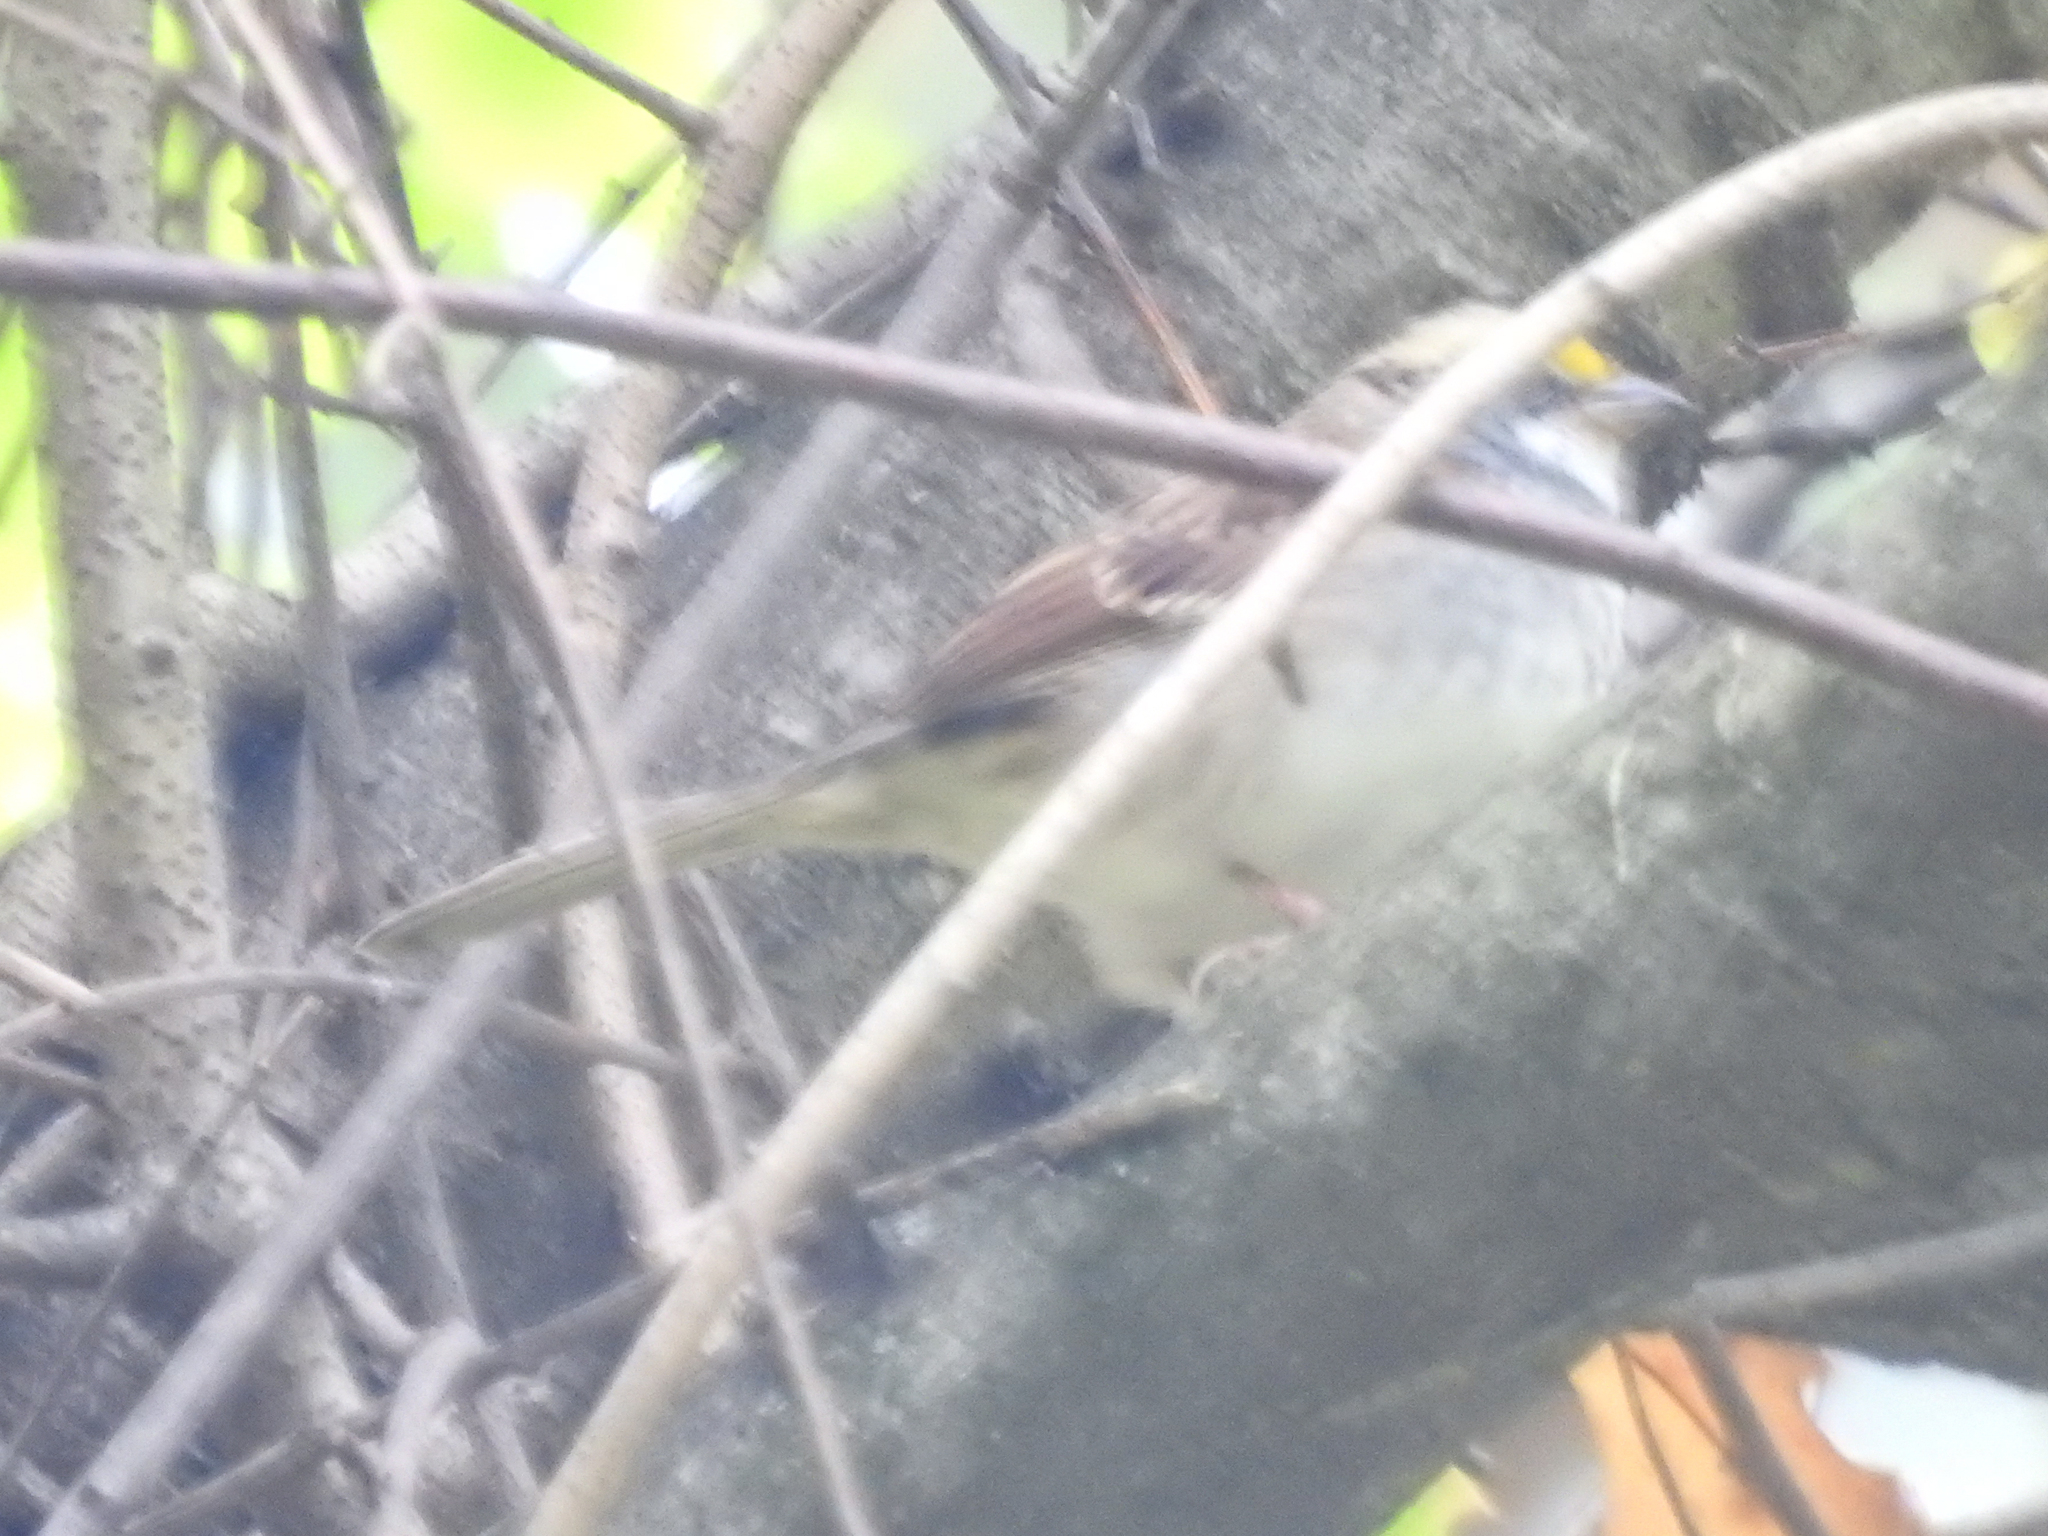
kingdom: Animalia
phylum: Chordata
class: Aves
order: Passeriformes
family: Passerellidae
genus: Zonotrichia
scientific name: Zonotrichia albicollis
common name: White-throated sparrow
